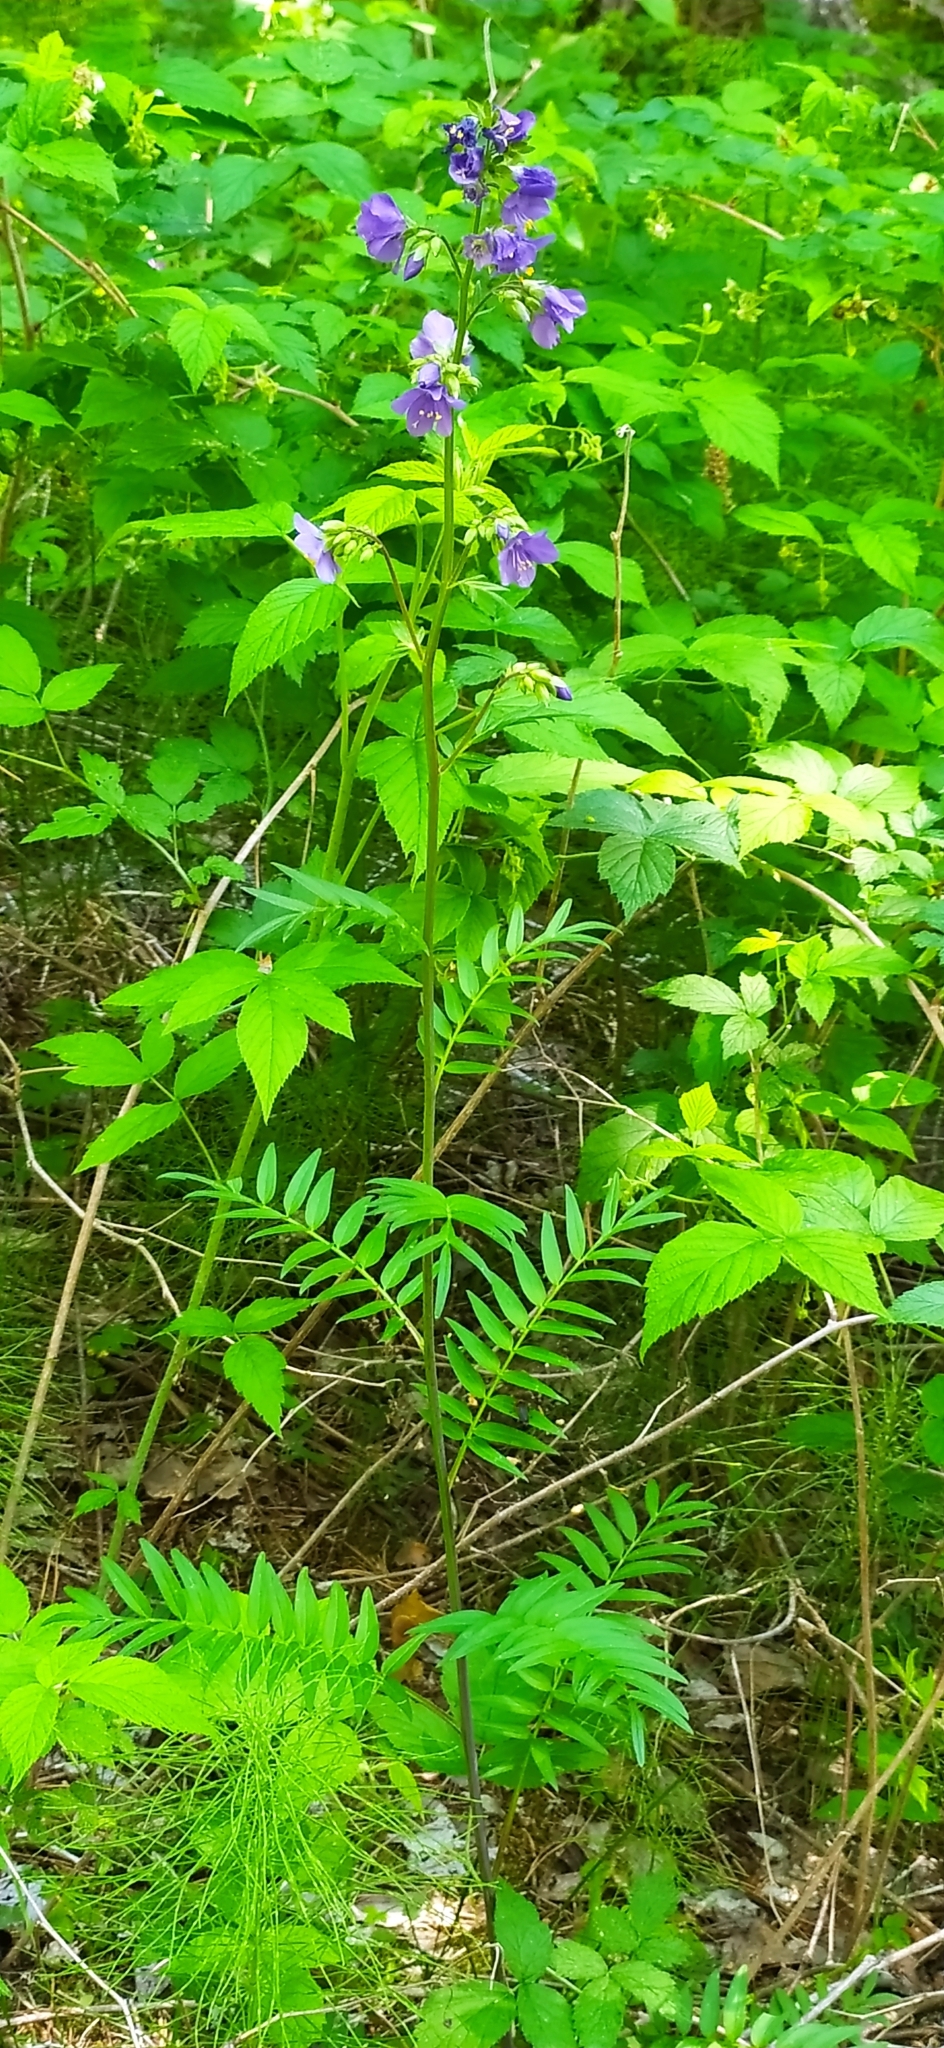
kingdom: Plantae
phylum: Tracheophyta
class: Magnoliopsida
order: Ericales
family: Polemoniaceae
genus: Polemonium
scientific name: Polemonium caeruleum
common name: Jacob's-ladder
